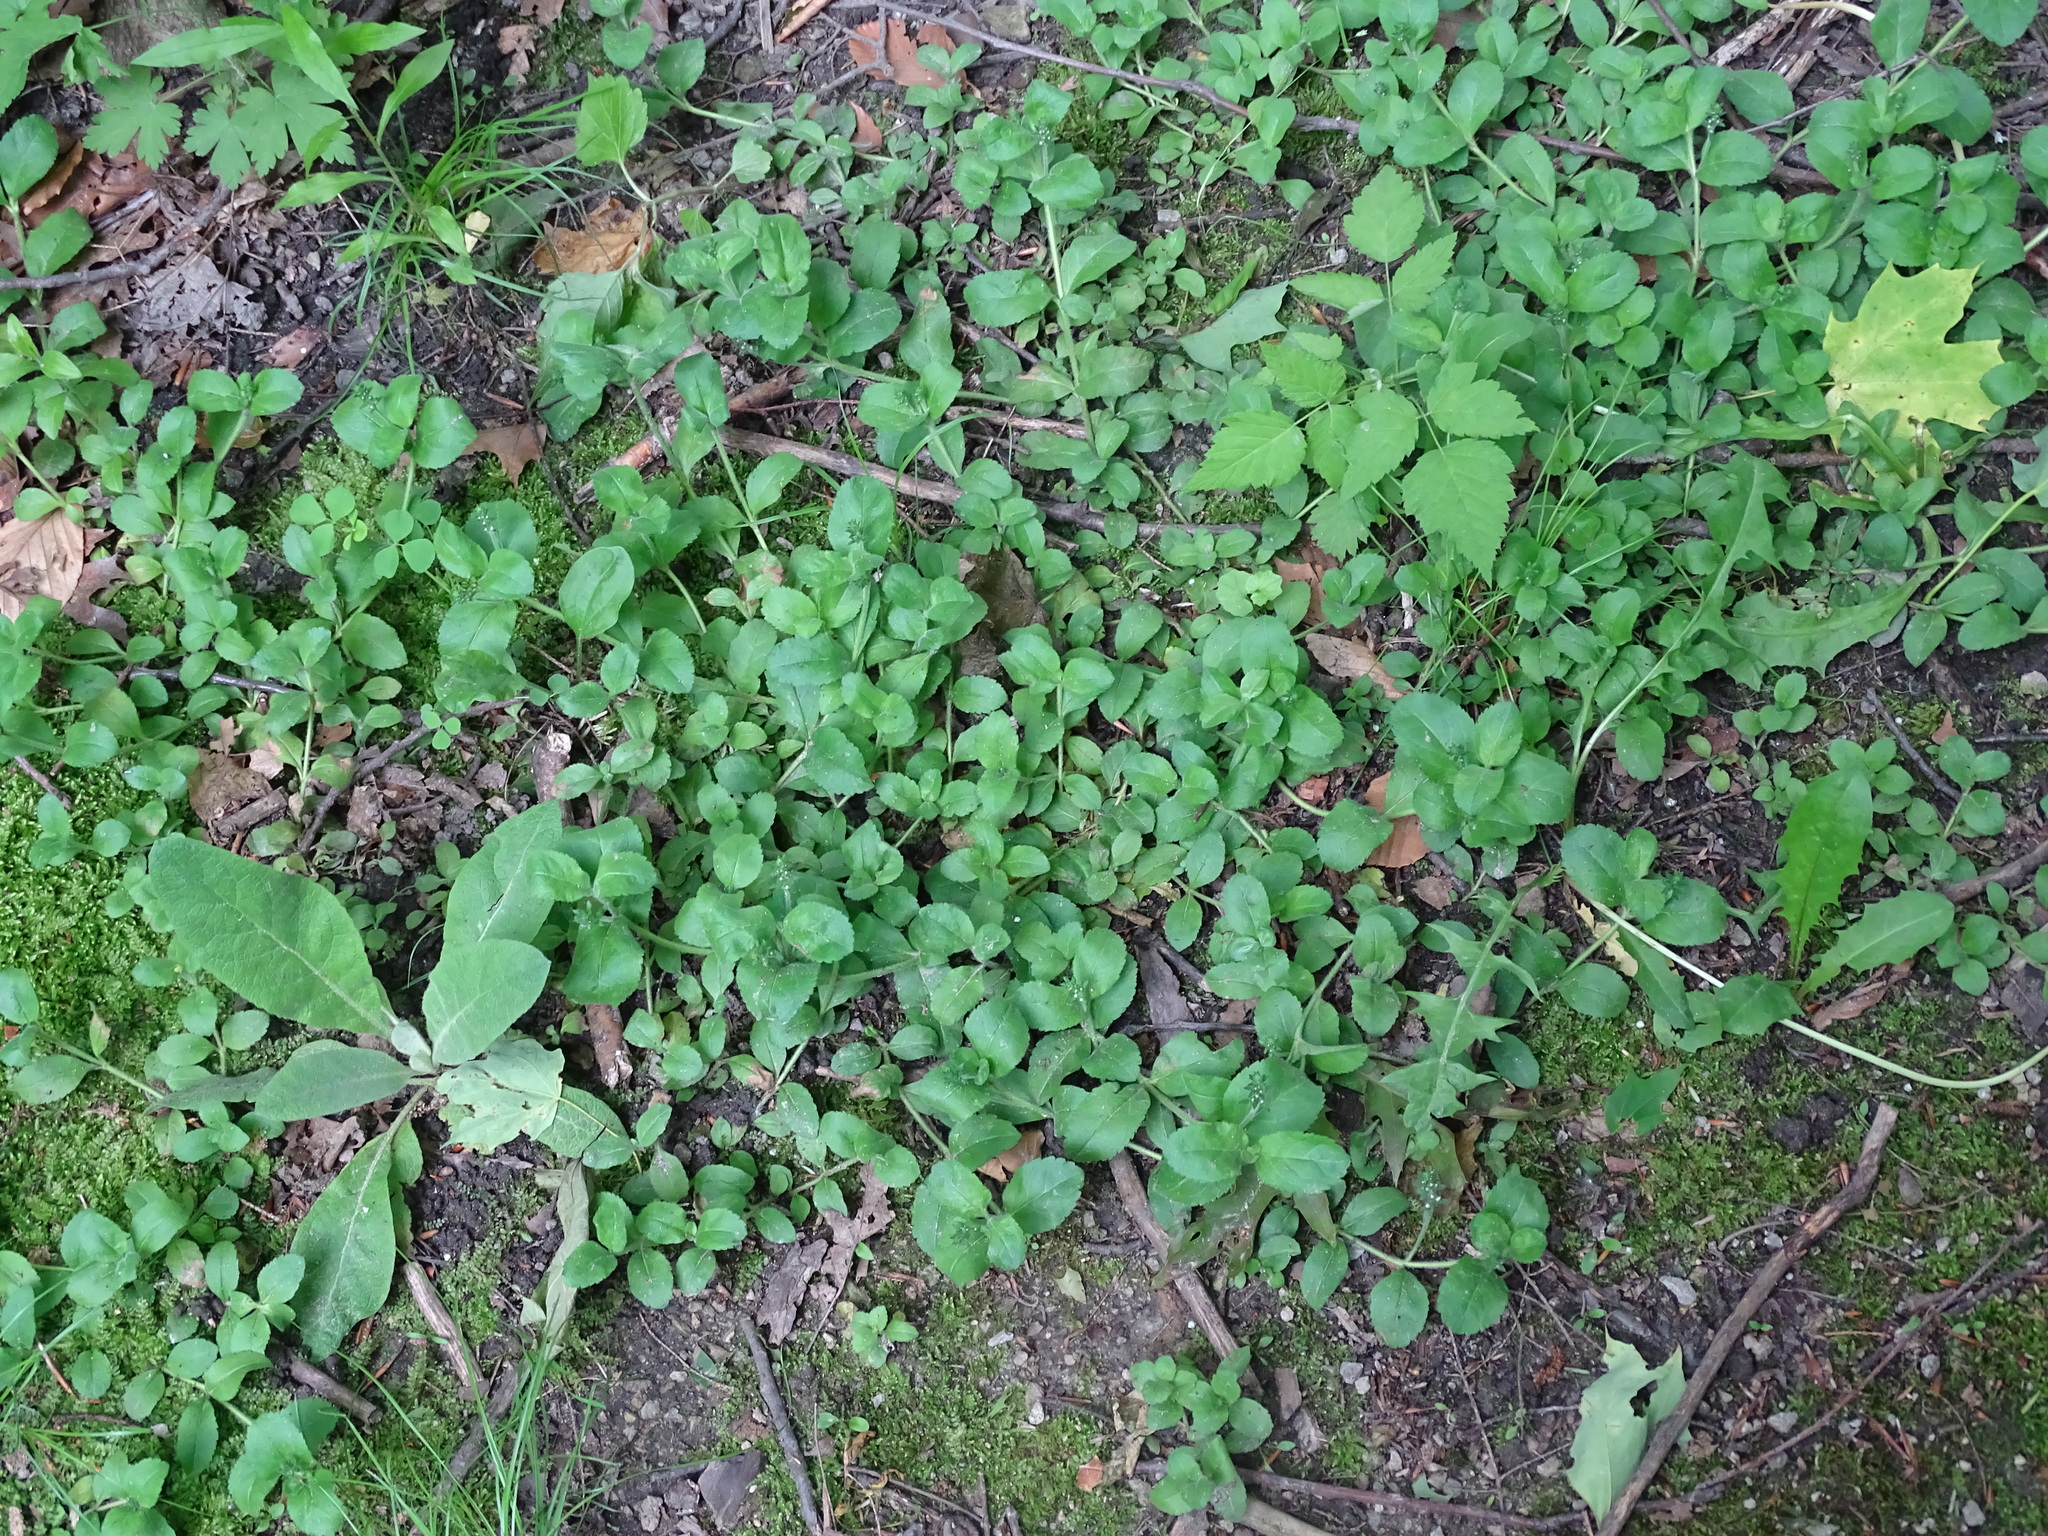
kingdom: Plantae
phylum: Tracheophyta
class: Magnoliopsida
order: Lamiales
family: Plantaginaceae
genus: Veronica
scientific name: Veronica officinalis
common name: Common speedwell
